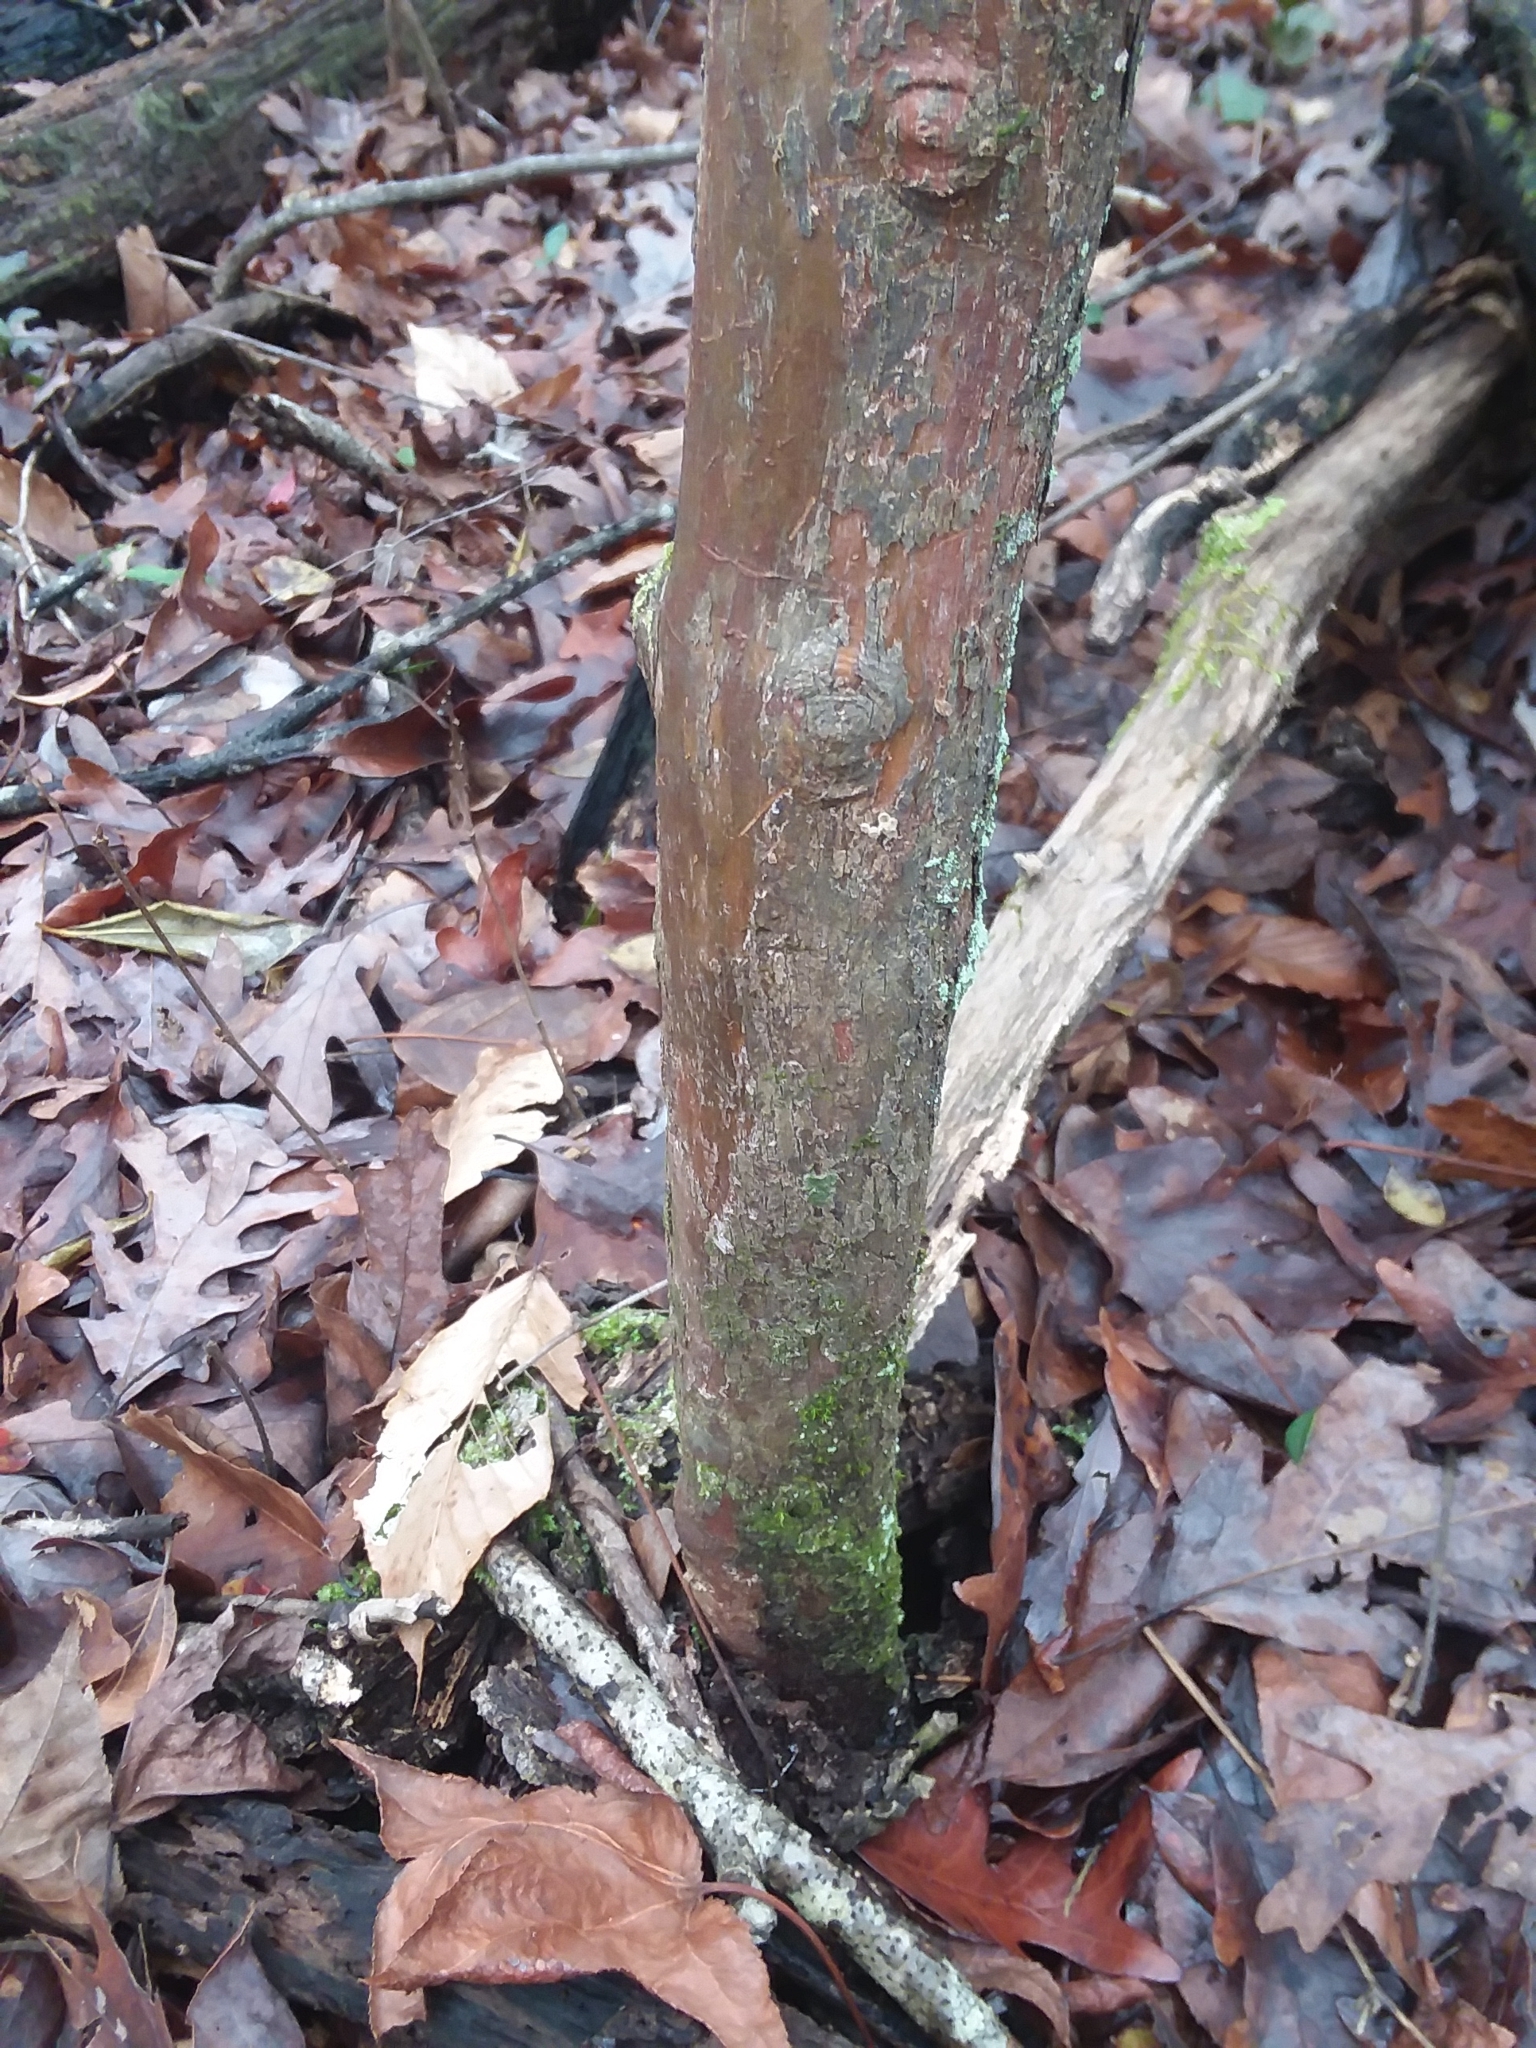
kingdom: Plantae
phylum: Tracheophyta
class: Magnoliopsida
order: Ericales
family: Ericaceae
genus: Vaccinium
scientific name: Vaccinium arboreum
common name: Farkleberry
